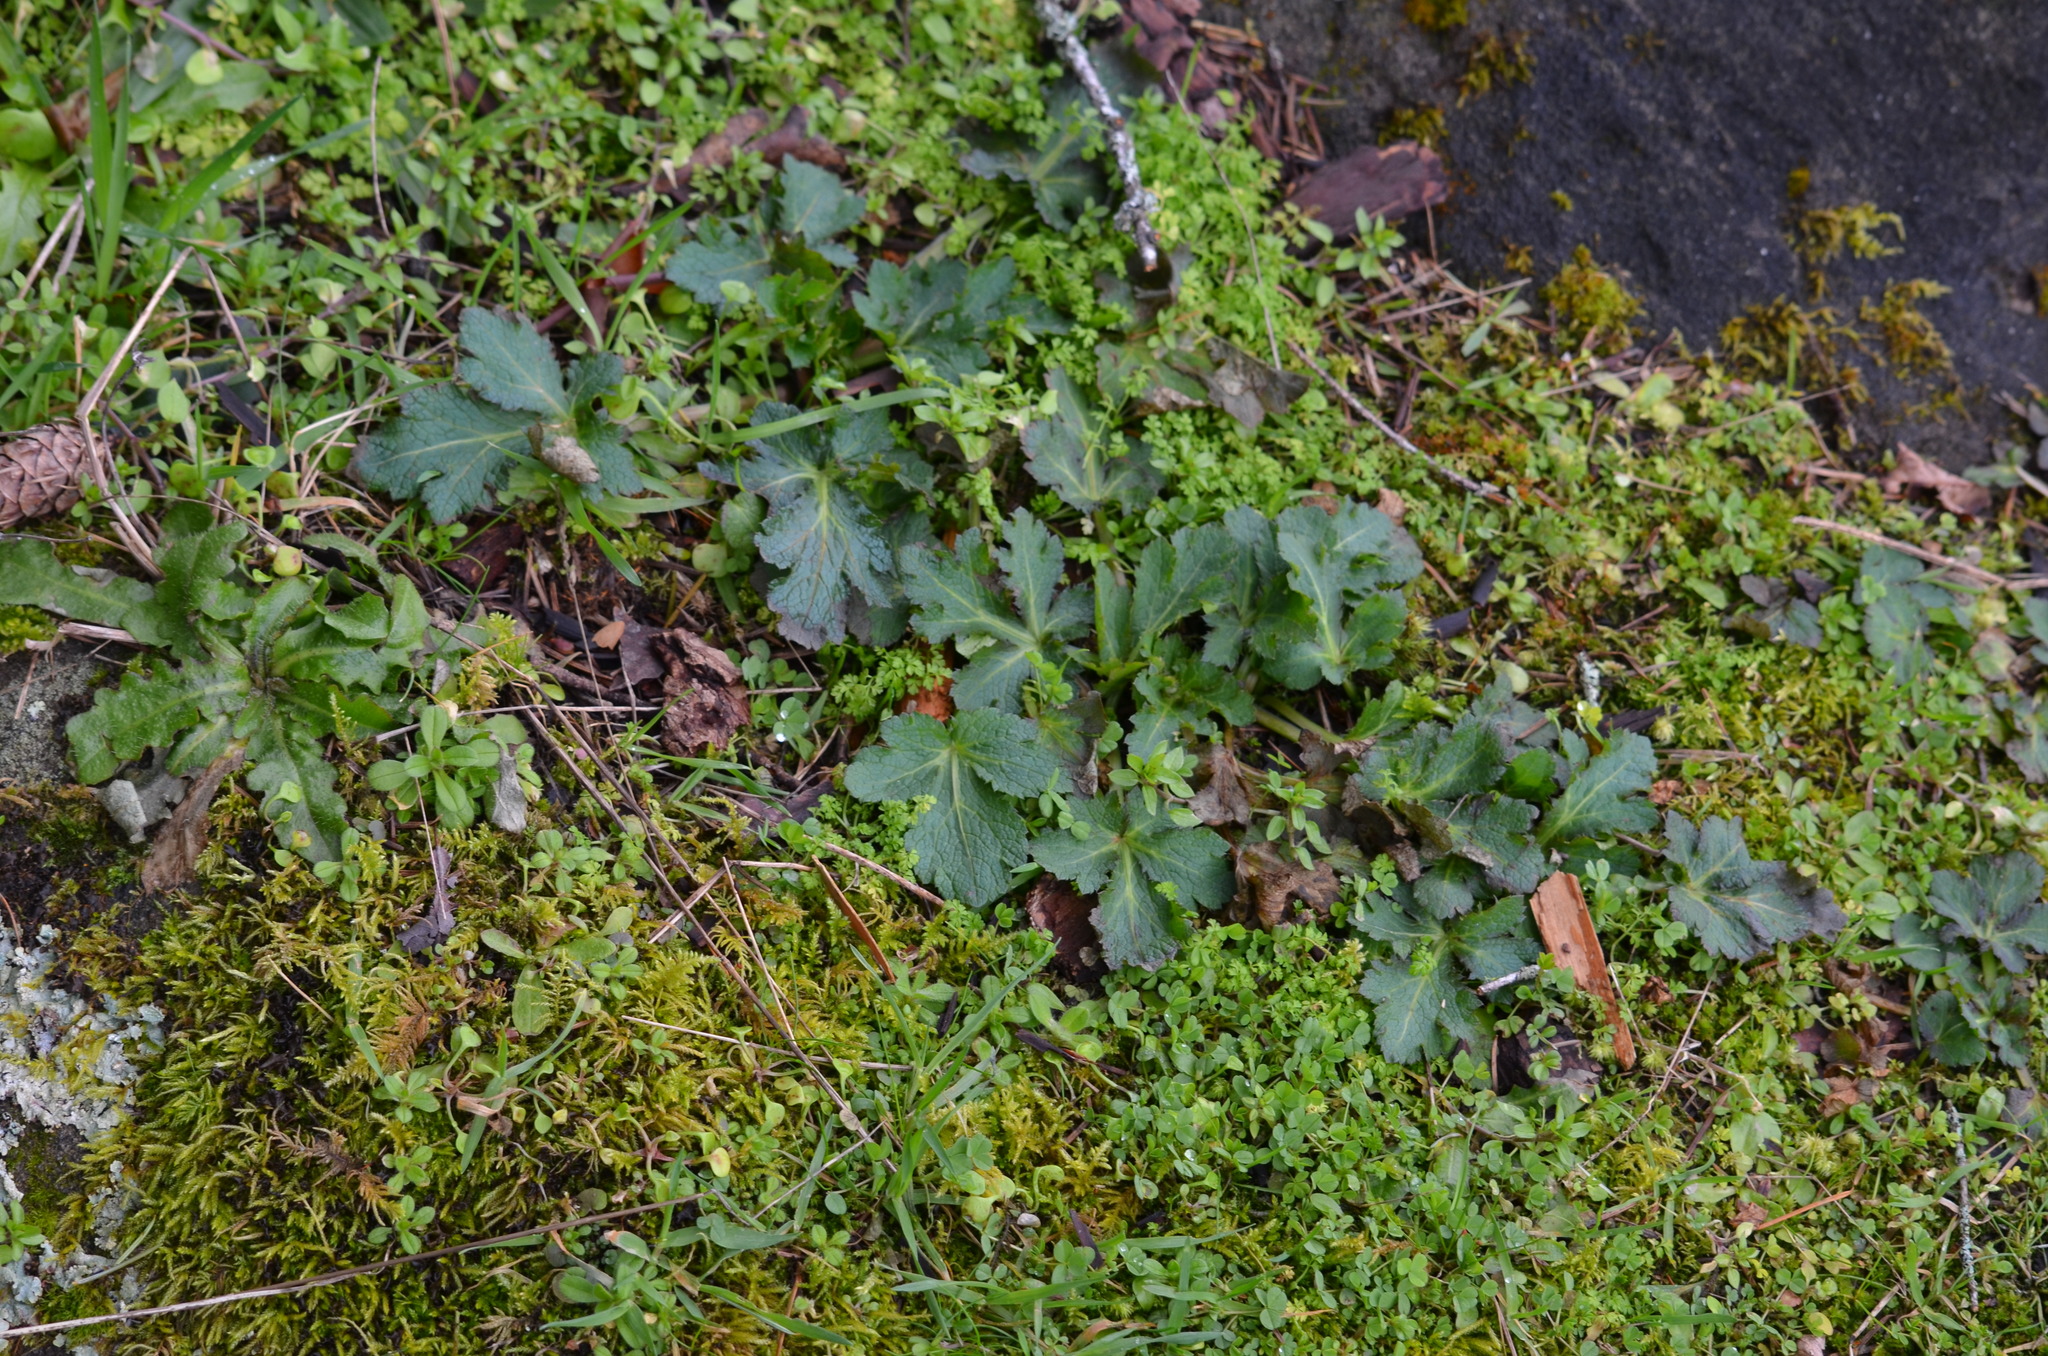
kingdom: Plantae
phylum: Tracheophyta
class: Magnoliopsida
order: Apiales
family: Apiaceae
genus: Sanicula
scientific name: Sanicula crassicaulis
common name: Western snakeroot
